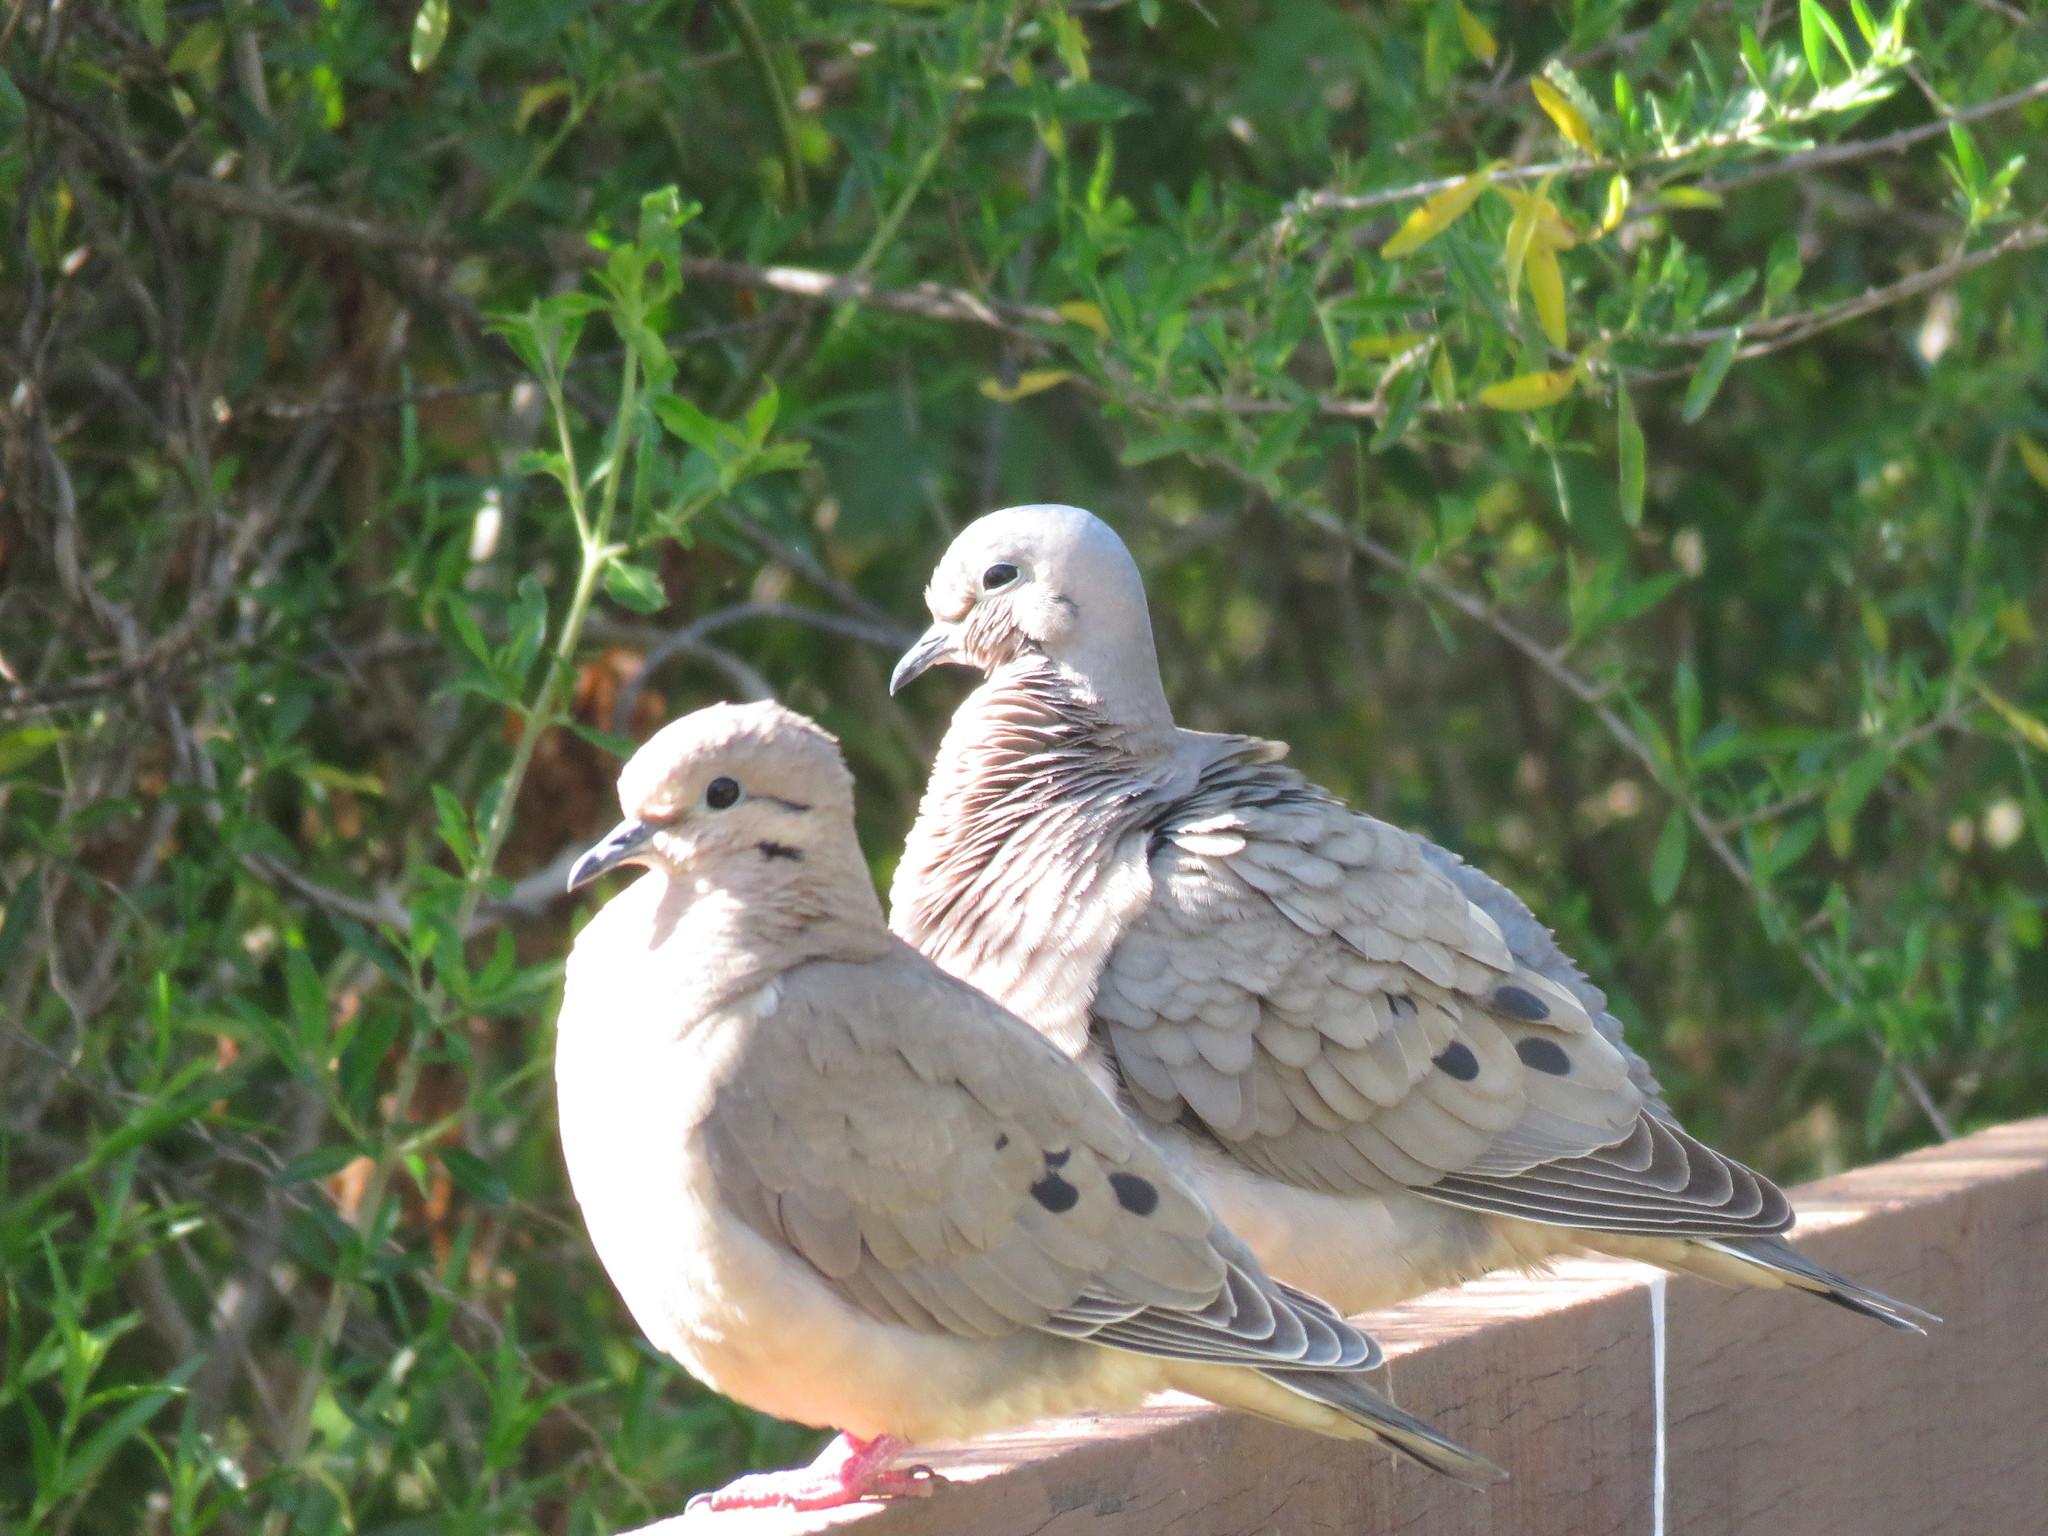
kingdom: Animalia
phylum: Chordata
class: Aves
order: Columbiformes
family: Columbidae
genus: Zenaida
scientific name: Zenaida auriculata
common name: Eared dove
